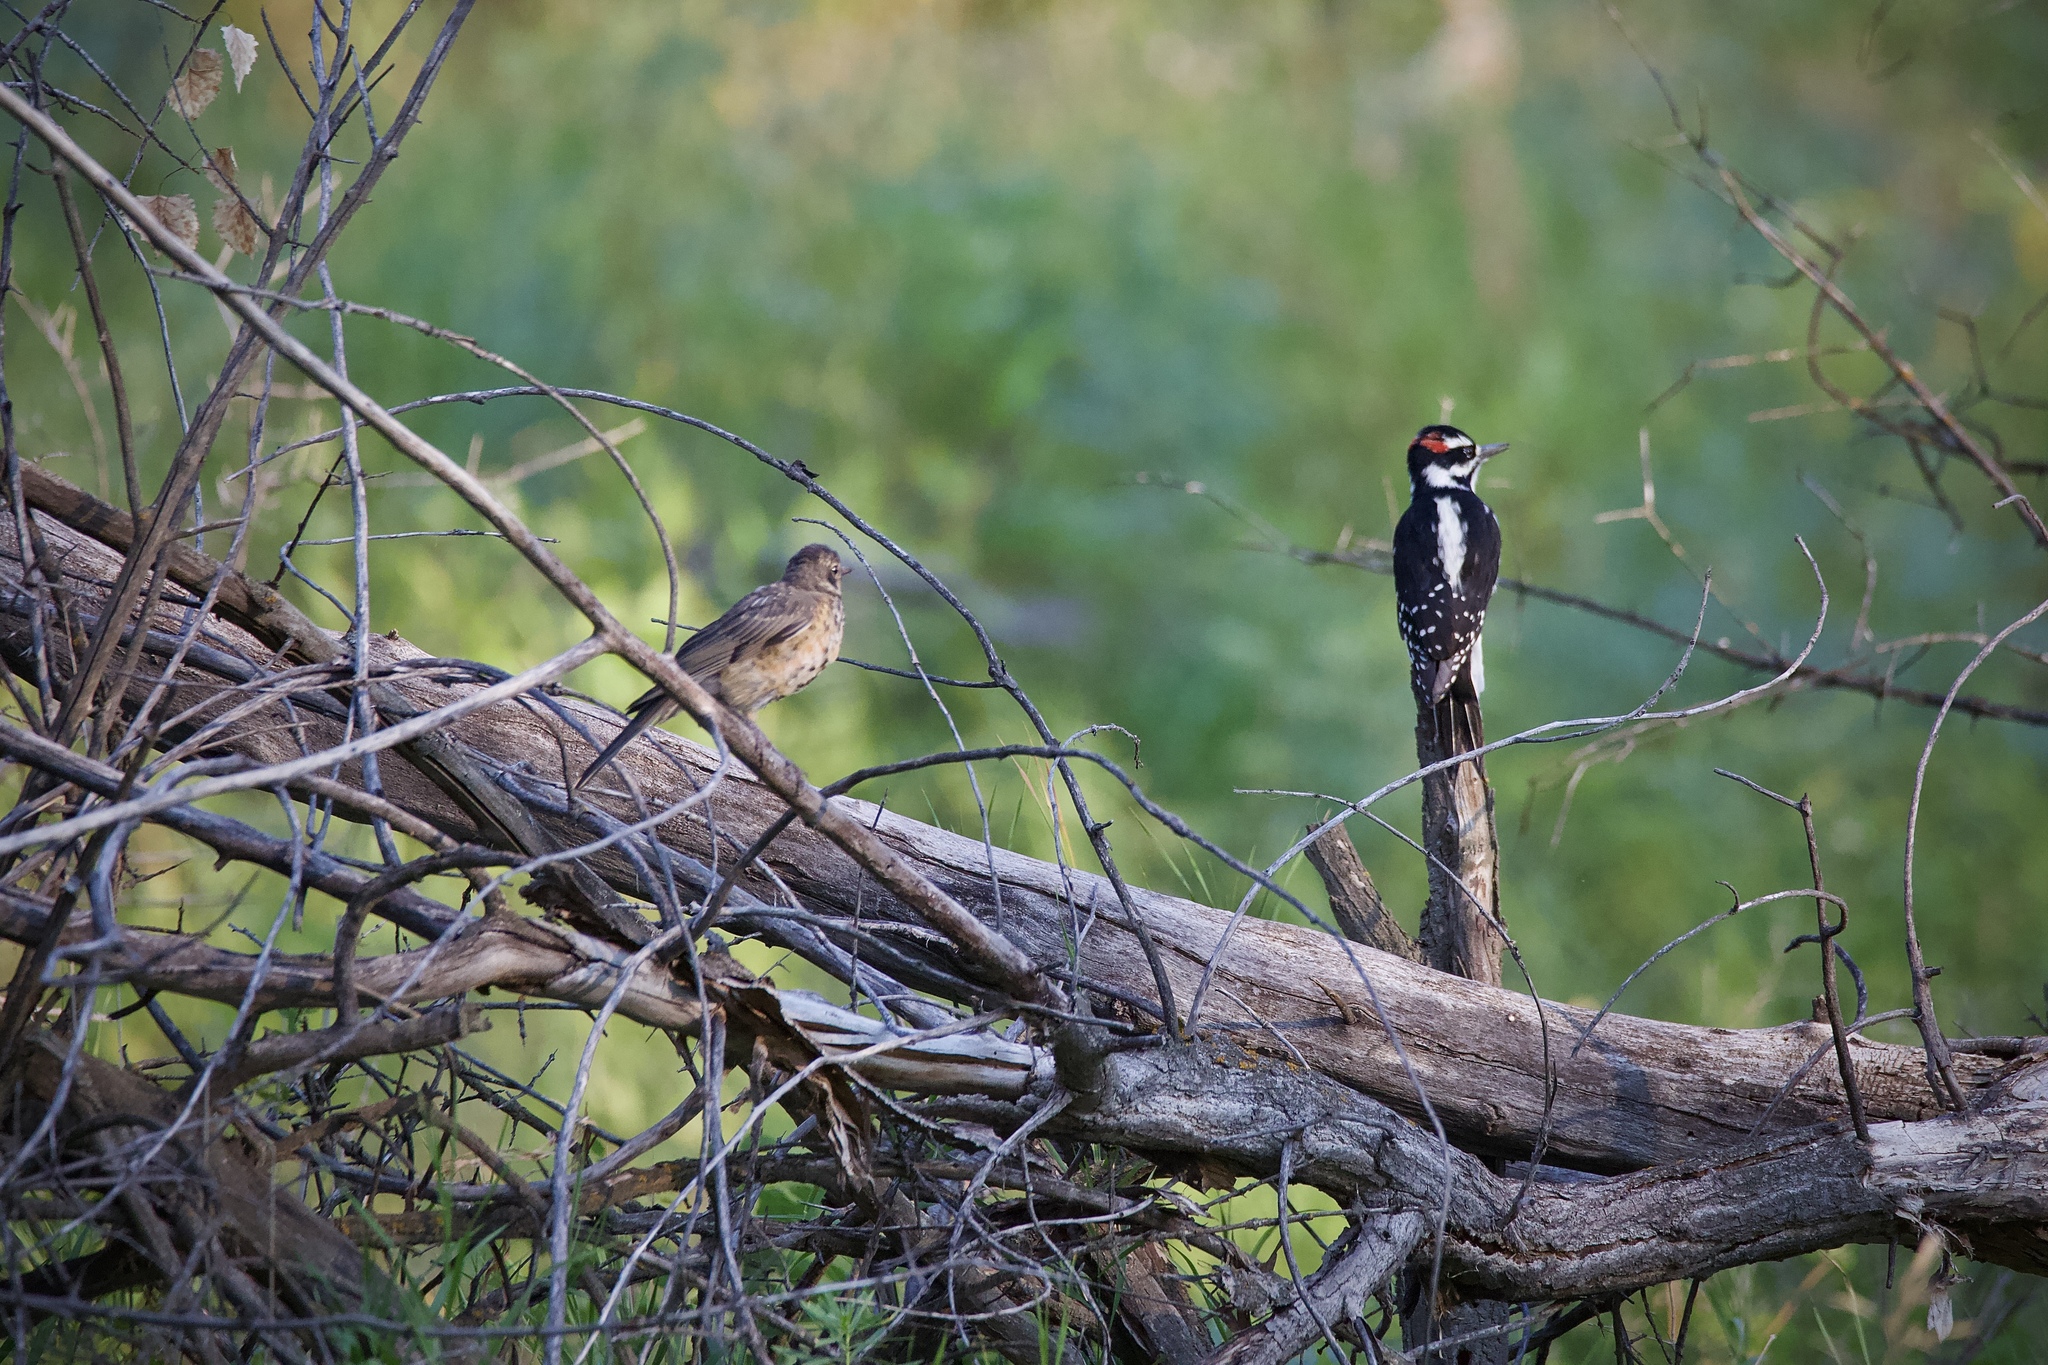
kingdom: Animalia
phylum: Chordata
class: Aves
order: Piciformes
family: Picidae
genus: Leuconotopicus
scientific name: Leuconotopicus villosus
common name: Hairy woodpecker
